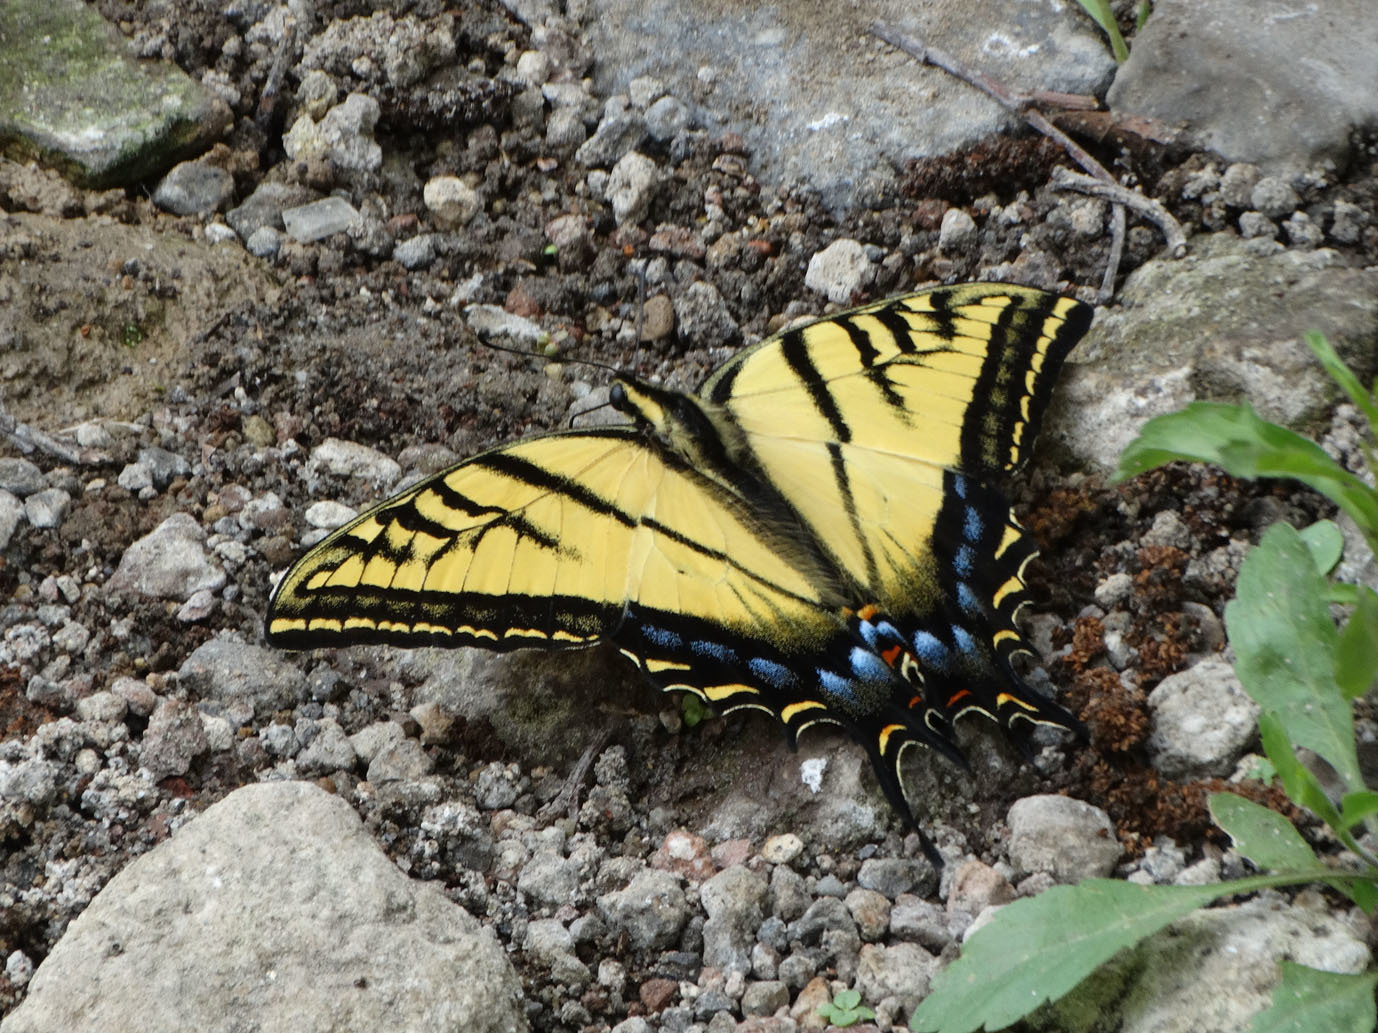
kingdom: Animalia
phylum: Arthropoda
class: Insecta
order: Lepidoptera
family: Papilionidae
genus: Papilio
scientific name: Papilio multicaudata
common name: Two-tailed tiger swallowtail
